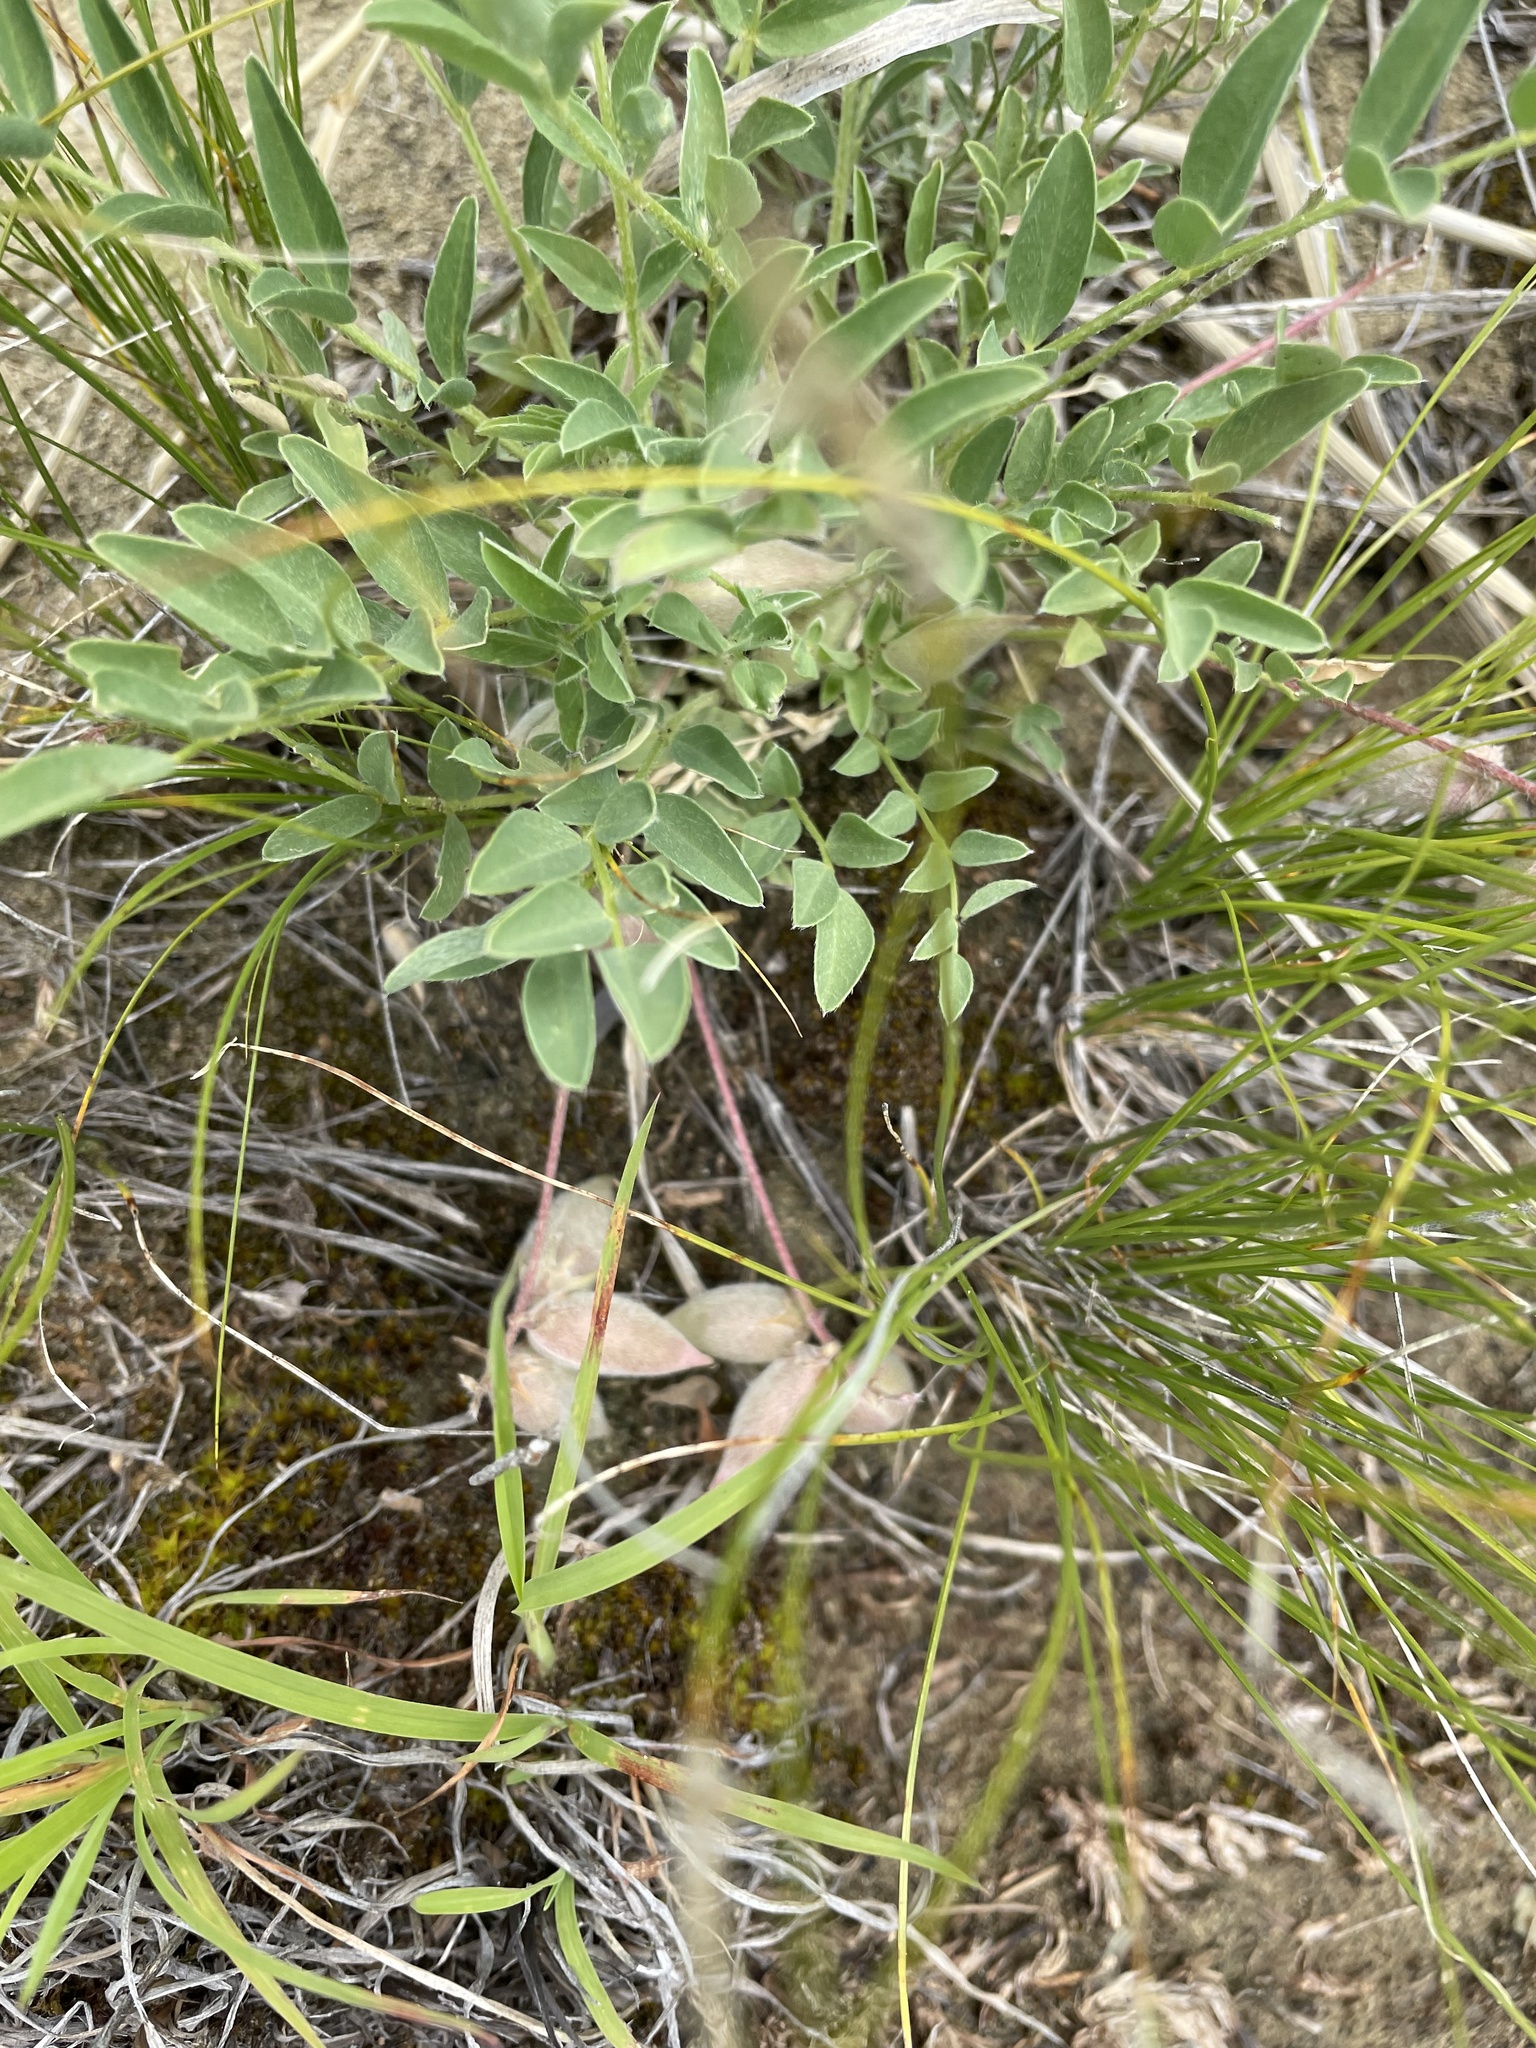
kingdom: Plantae
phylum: Tracheophyta
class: Magnoliopsida
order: Fabales
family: Fabaceae
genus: Astragalus
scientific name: Astragalus lotiflorus
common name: Lotus milk-vetch
